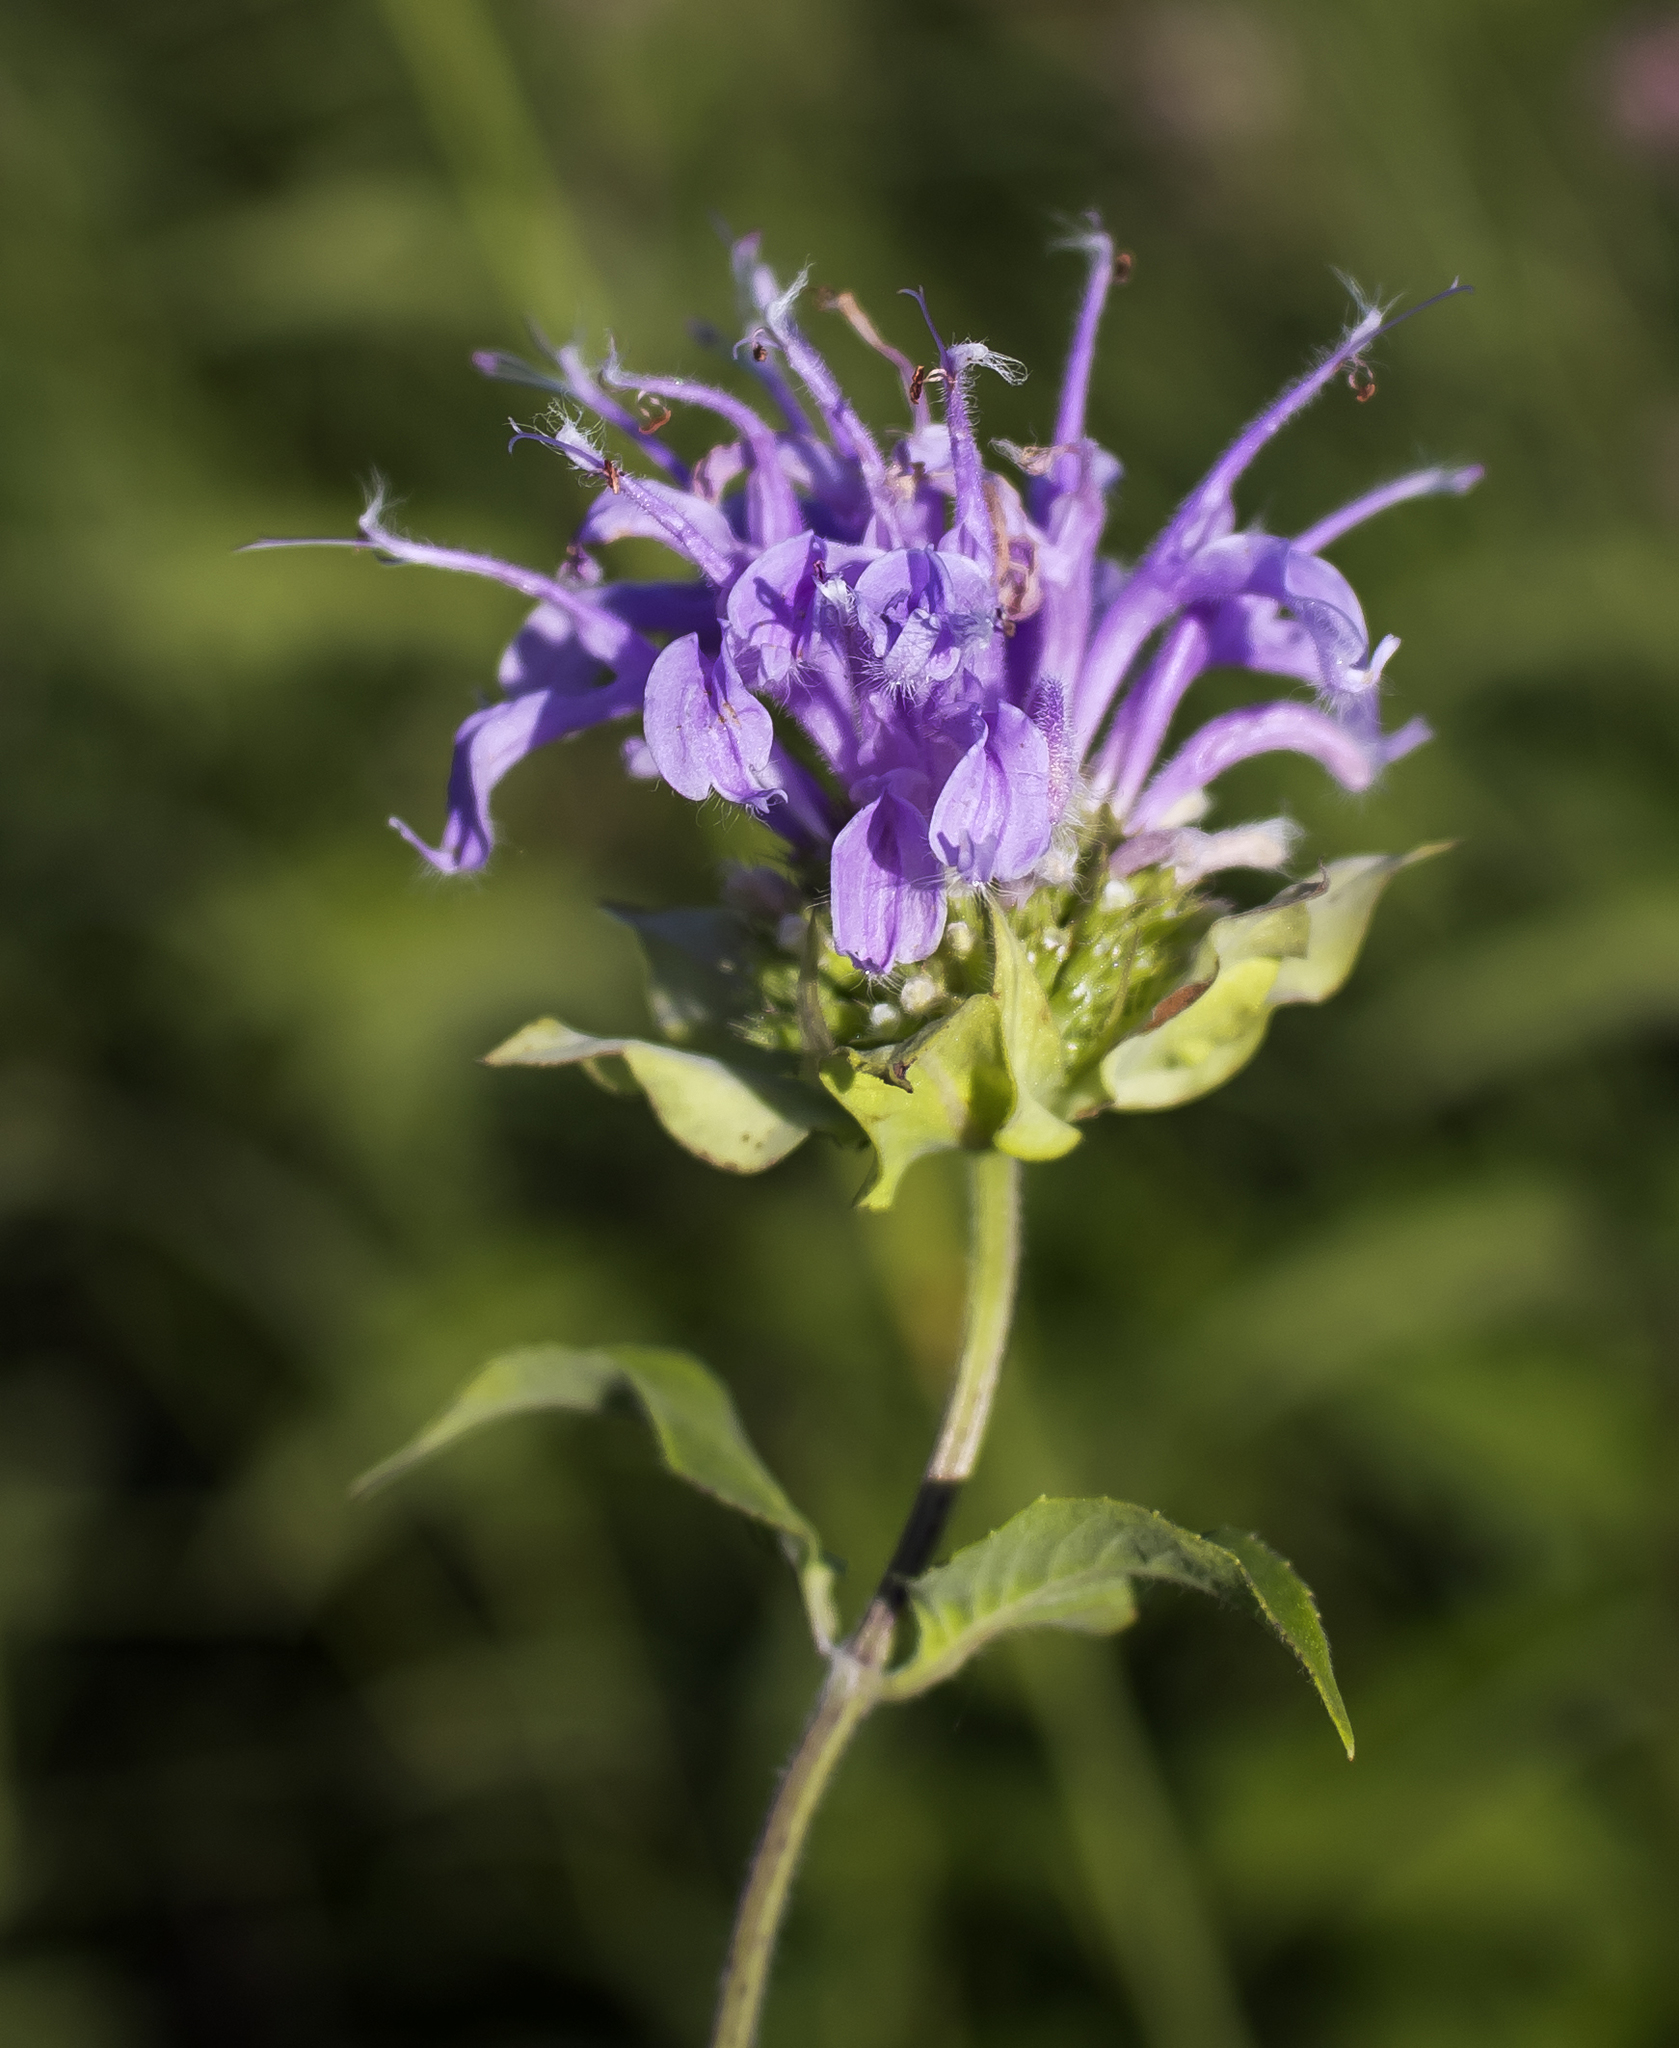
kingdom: Plantae
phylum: Tracheophyta
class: Magnoliopsida
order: Lamiales
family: Lamiaceae
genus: Monarda
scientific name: Monarda fistulosa
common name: Purple beebalm
